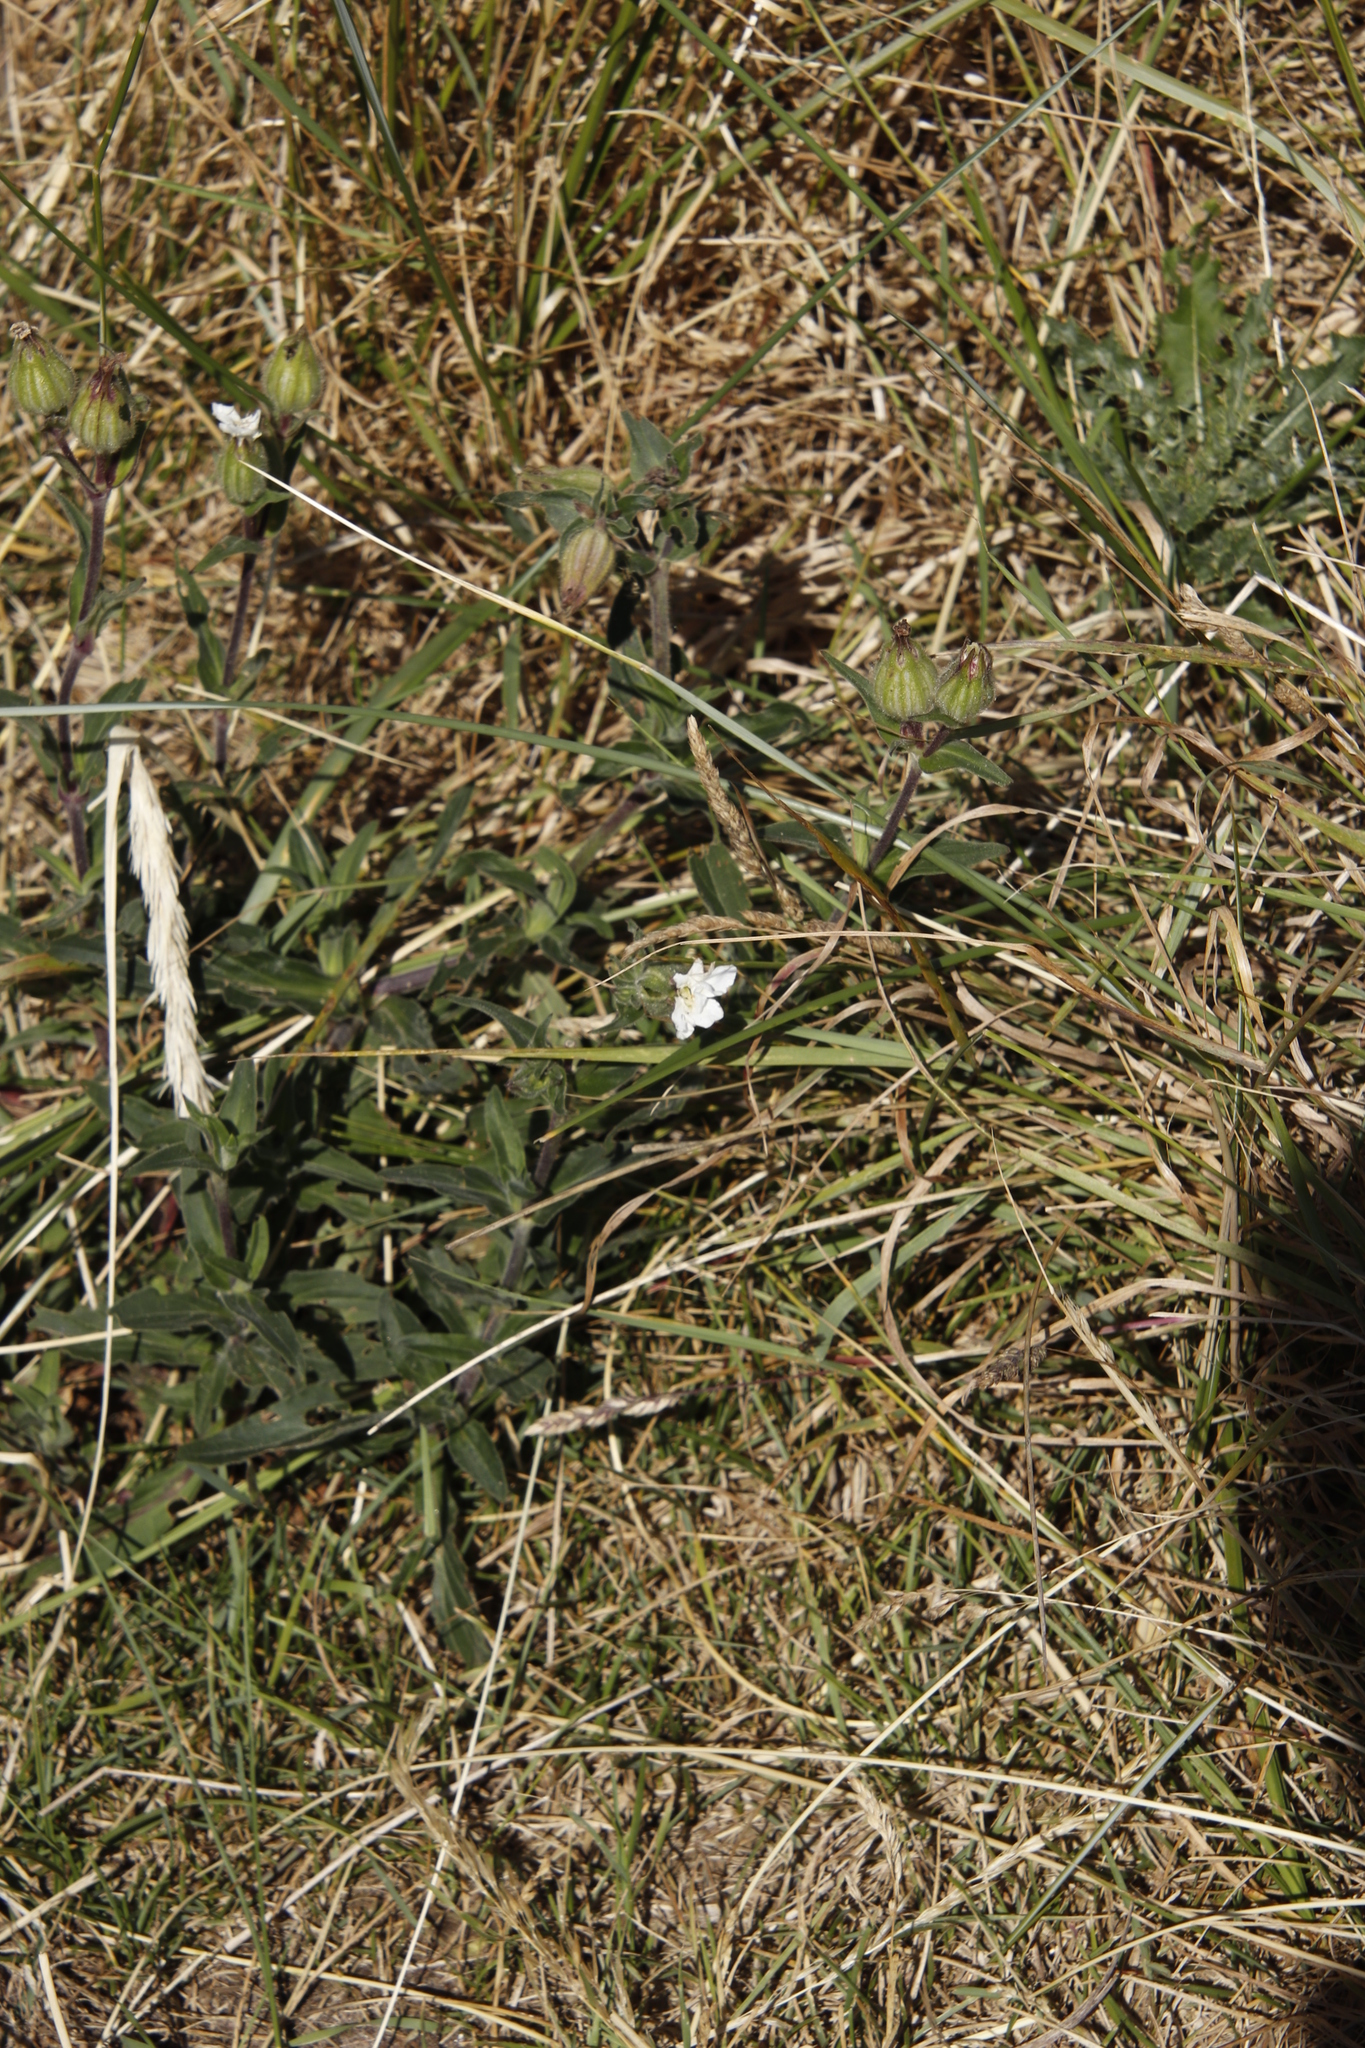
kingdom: Plantae
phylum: Tracheophyta
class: Magnoliopsida
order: Caryophyllales
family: Caryophyllaceae
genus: Silene
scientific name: Silene latifolia
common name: White campion
